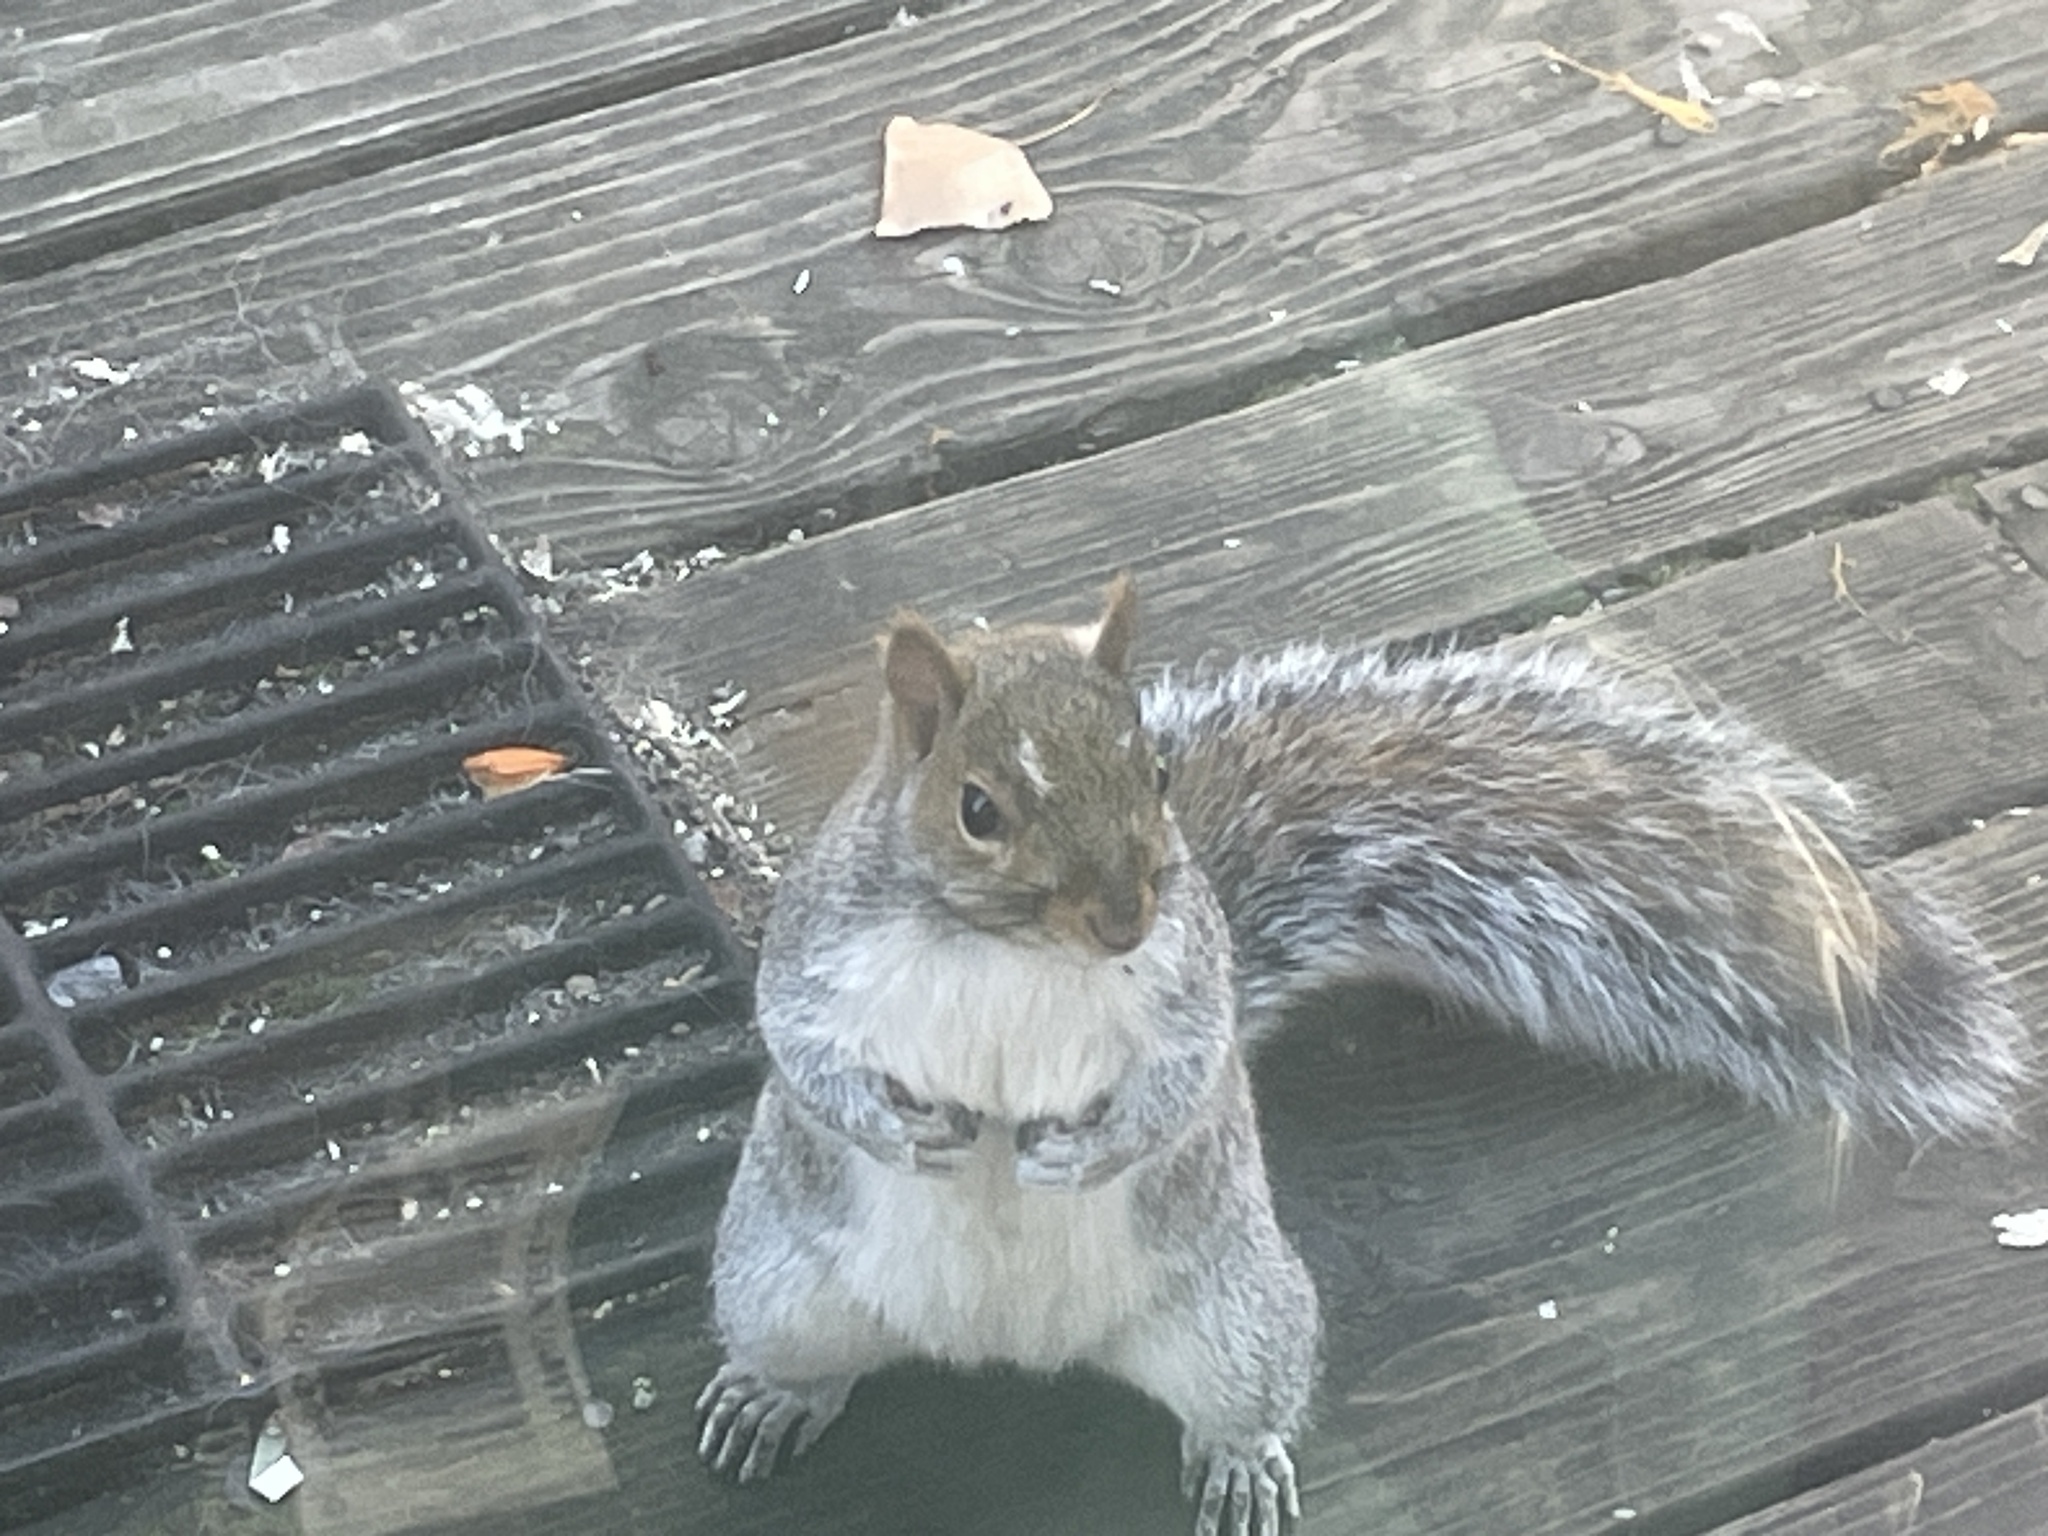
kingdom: Animalia
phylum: Chordata
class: Mammalia
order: Rodentia
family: Sciuridae
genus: Sciurus
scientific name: Sciurus carolinensis
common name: Eastern gray squirrel
